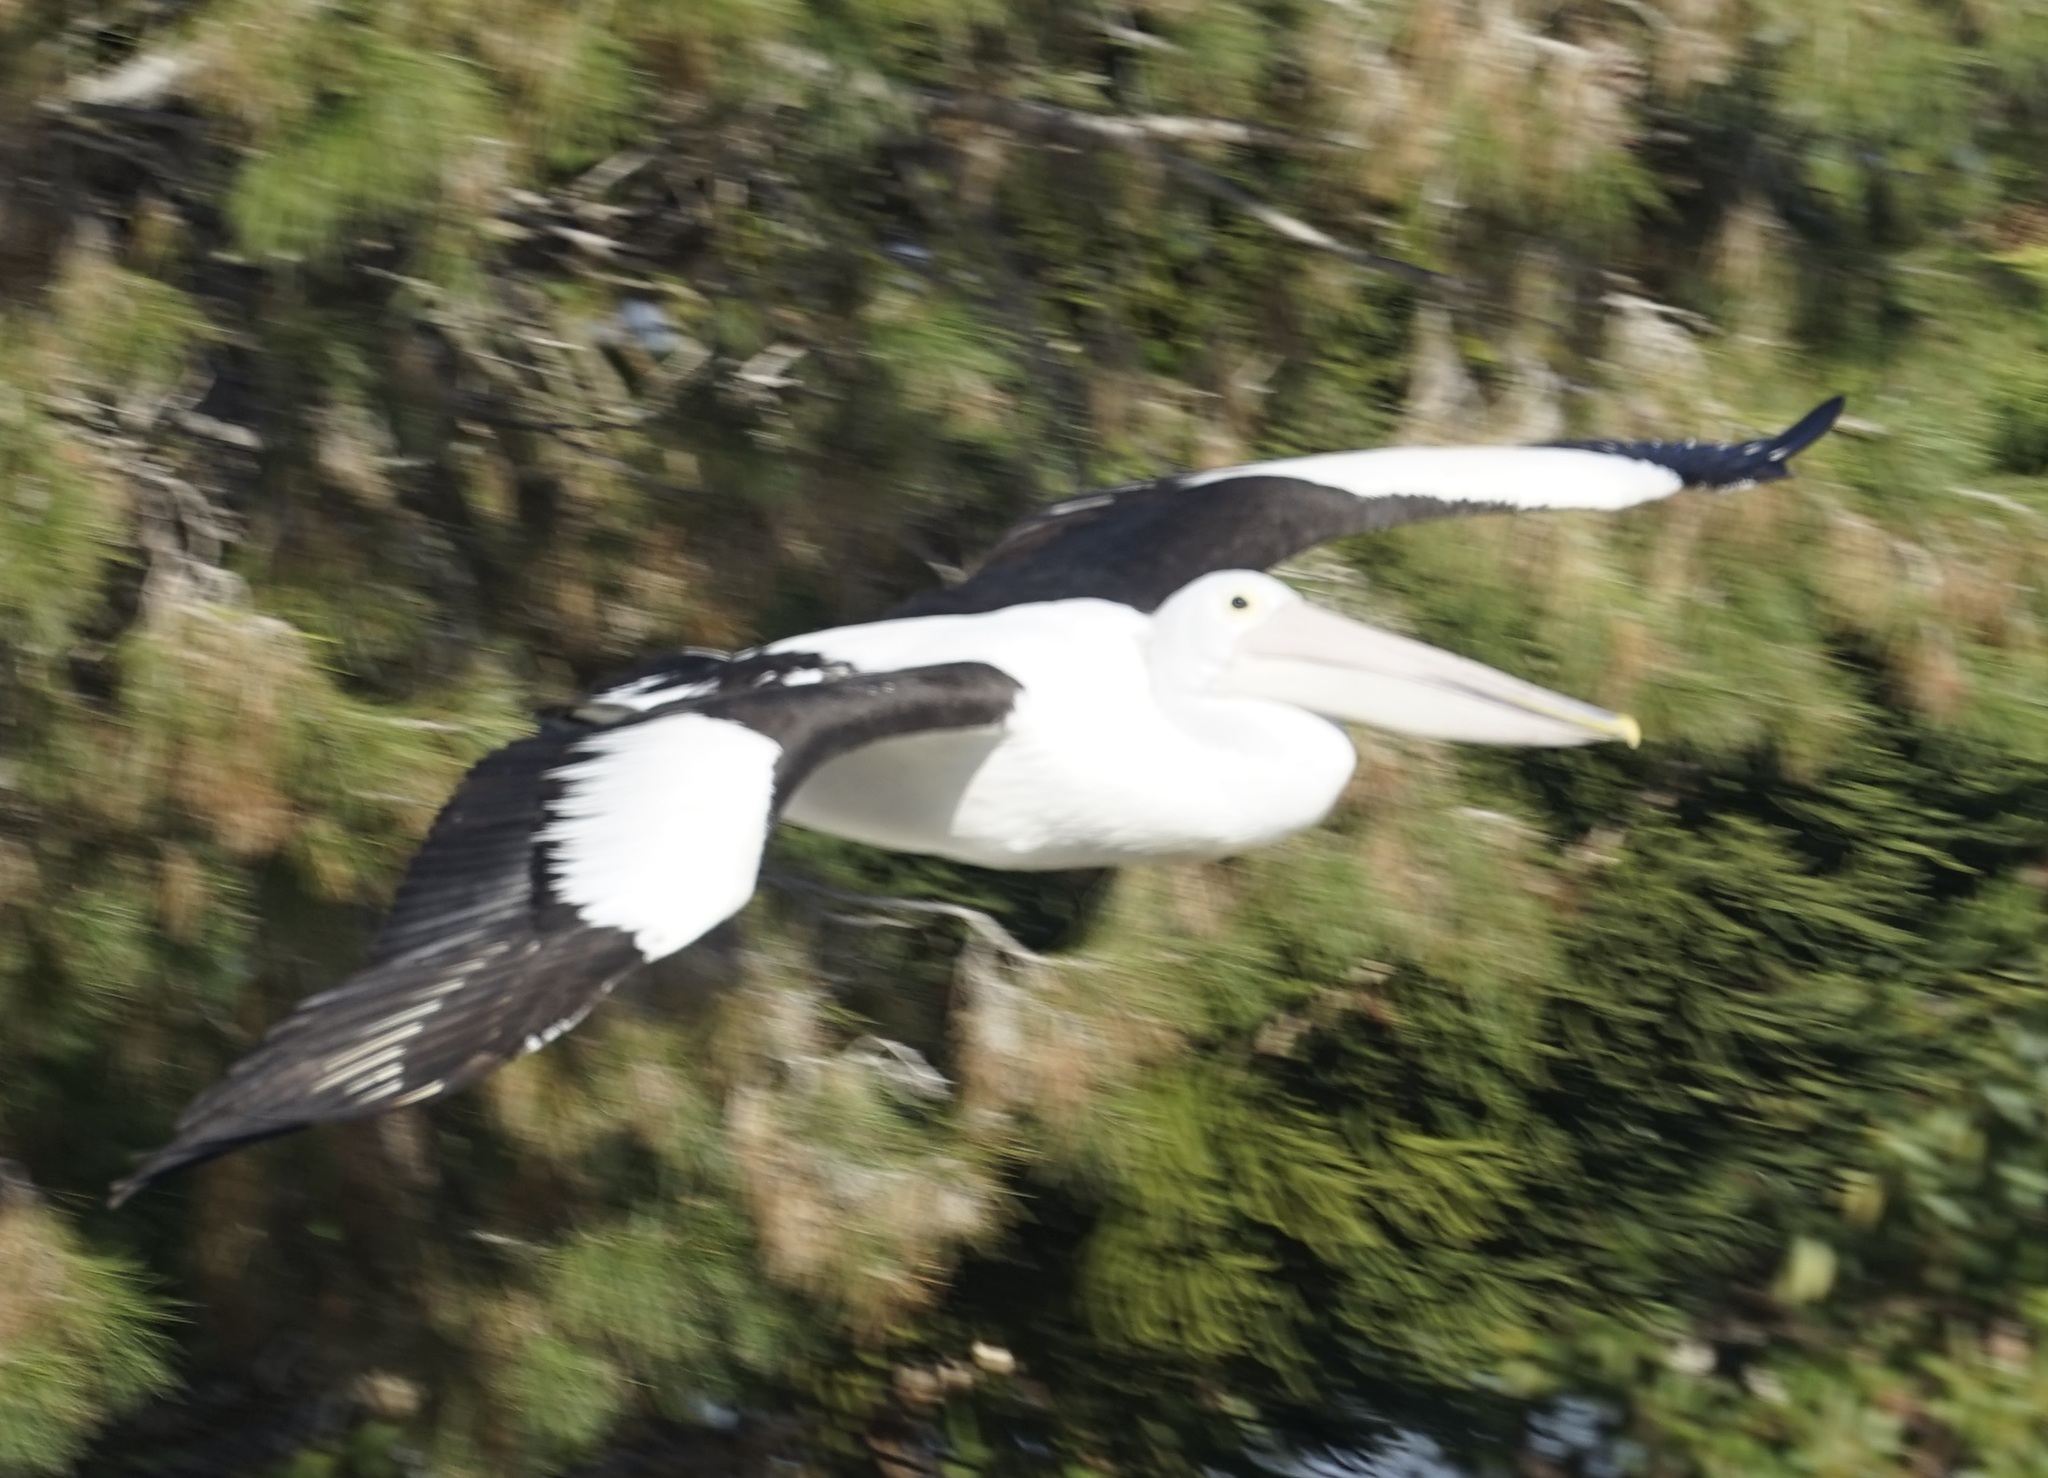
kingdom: Animalia
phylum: Chordata
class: Aves
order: Pelecaniformes
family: Pelecanidae
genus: Pelecanus
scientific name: Pelecanus conspicillatus
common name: Australian pelican
